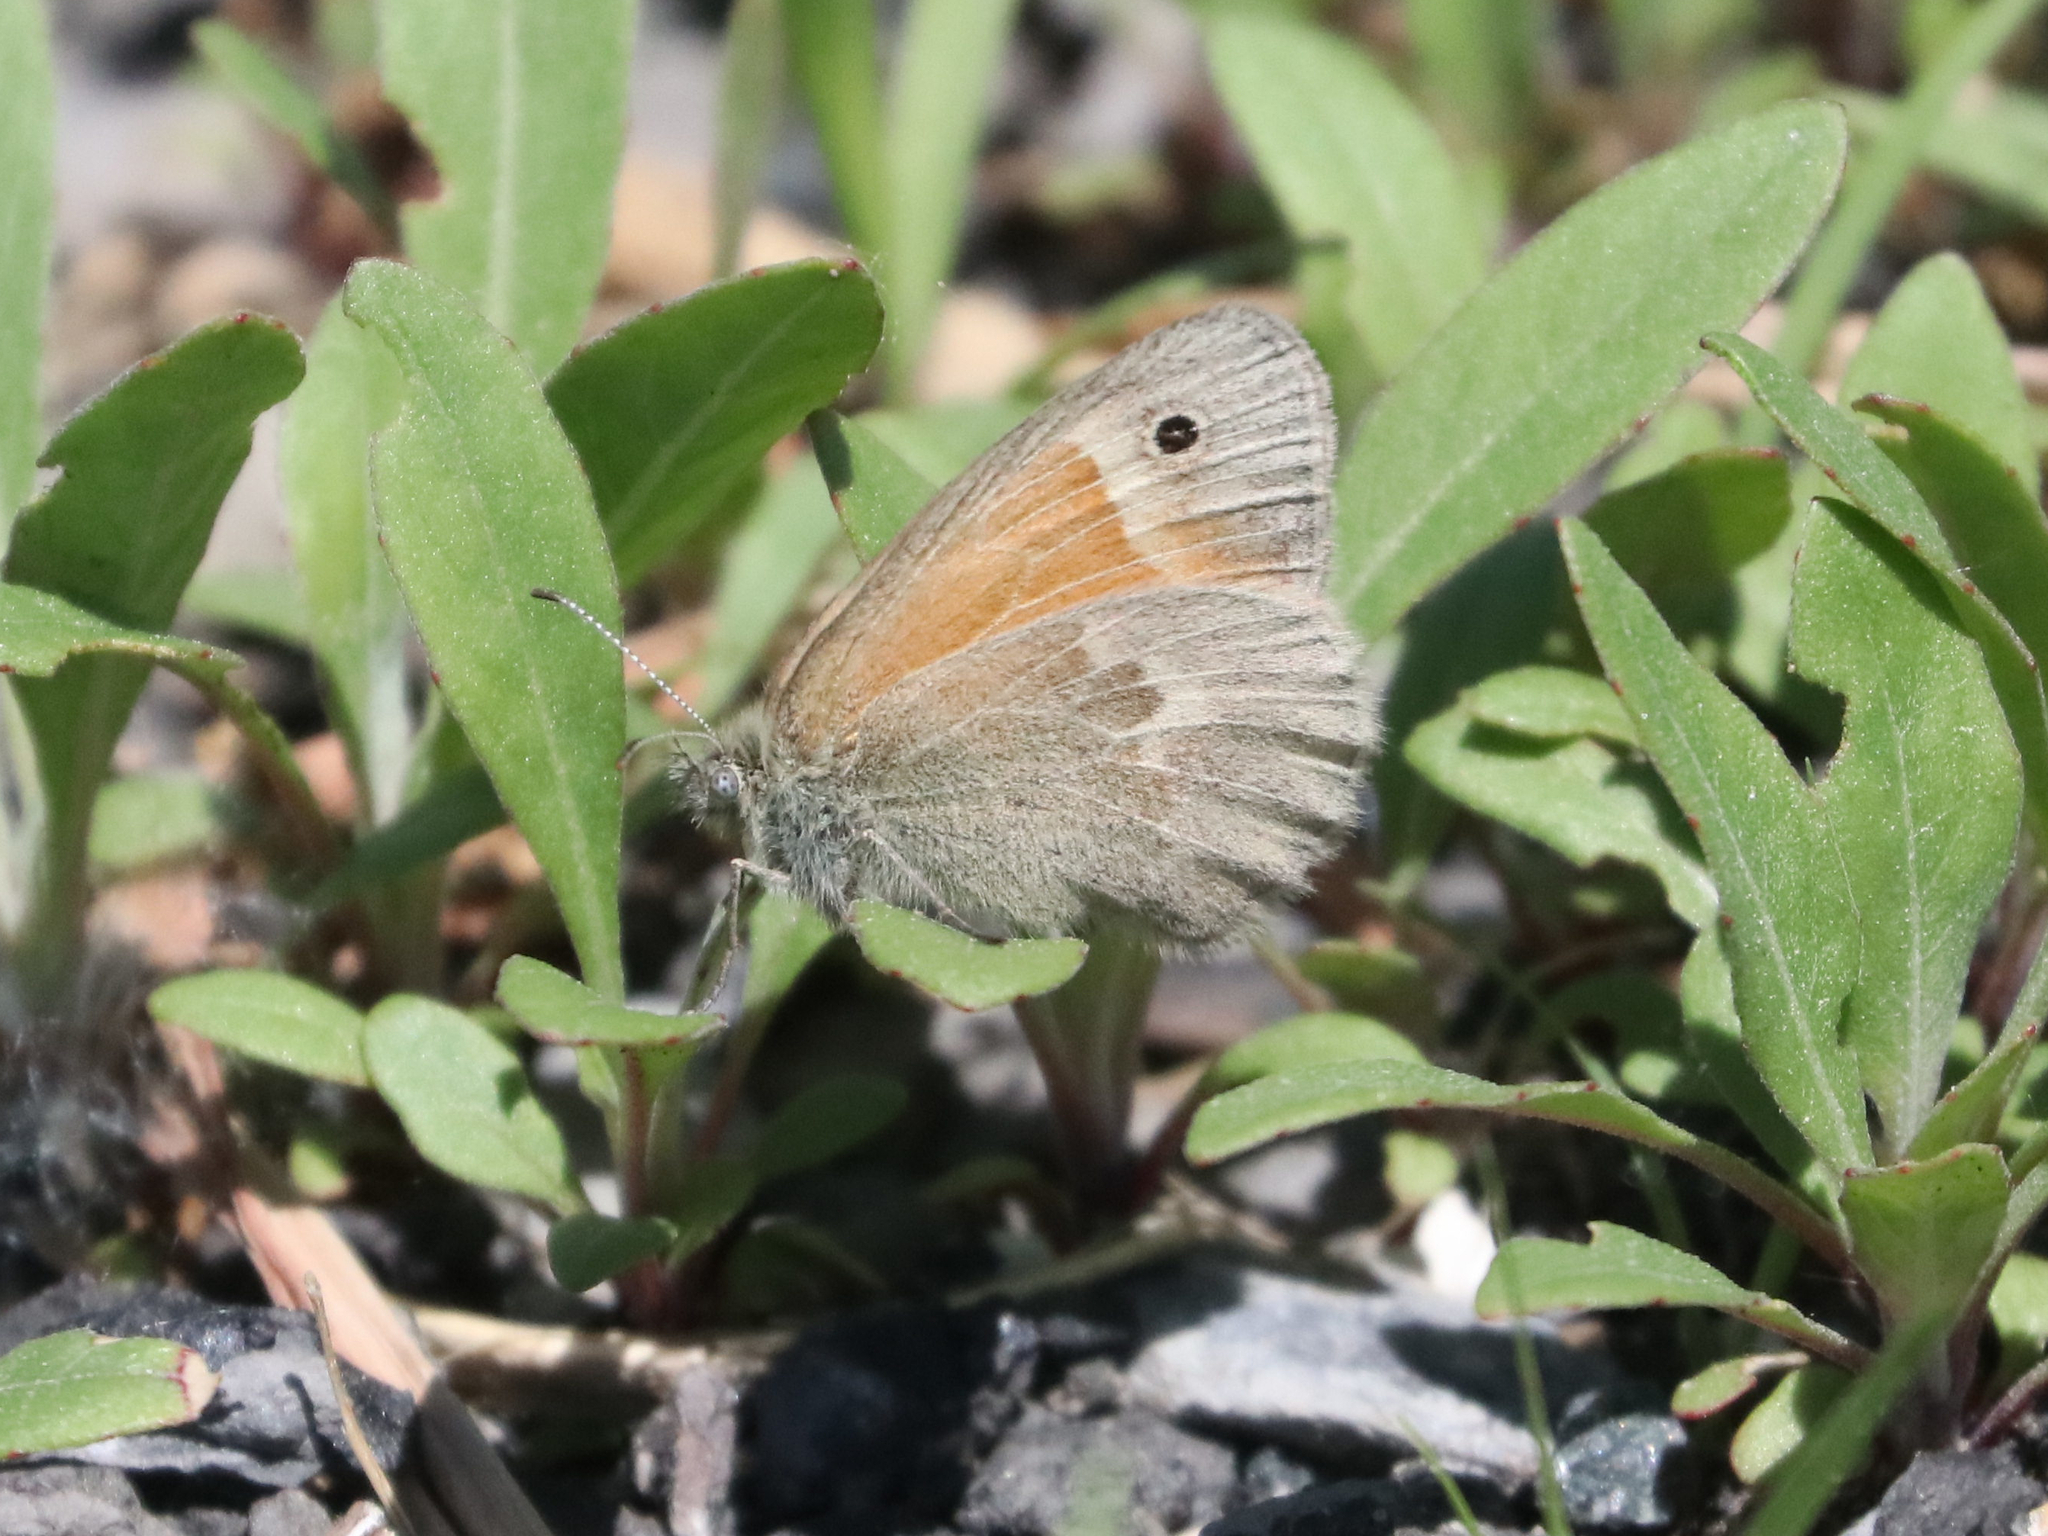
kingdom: Animalia
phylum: Arthropoda
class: Insecta
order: Lepidoptera
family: Nymphalidae
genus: Coenonympha
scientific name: Coenonympha california
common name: Common ringlet
